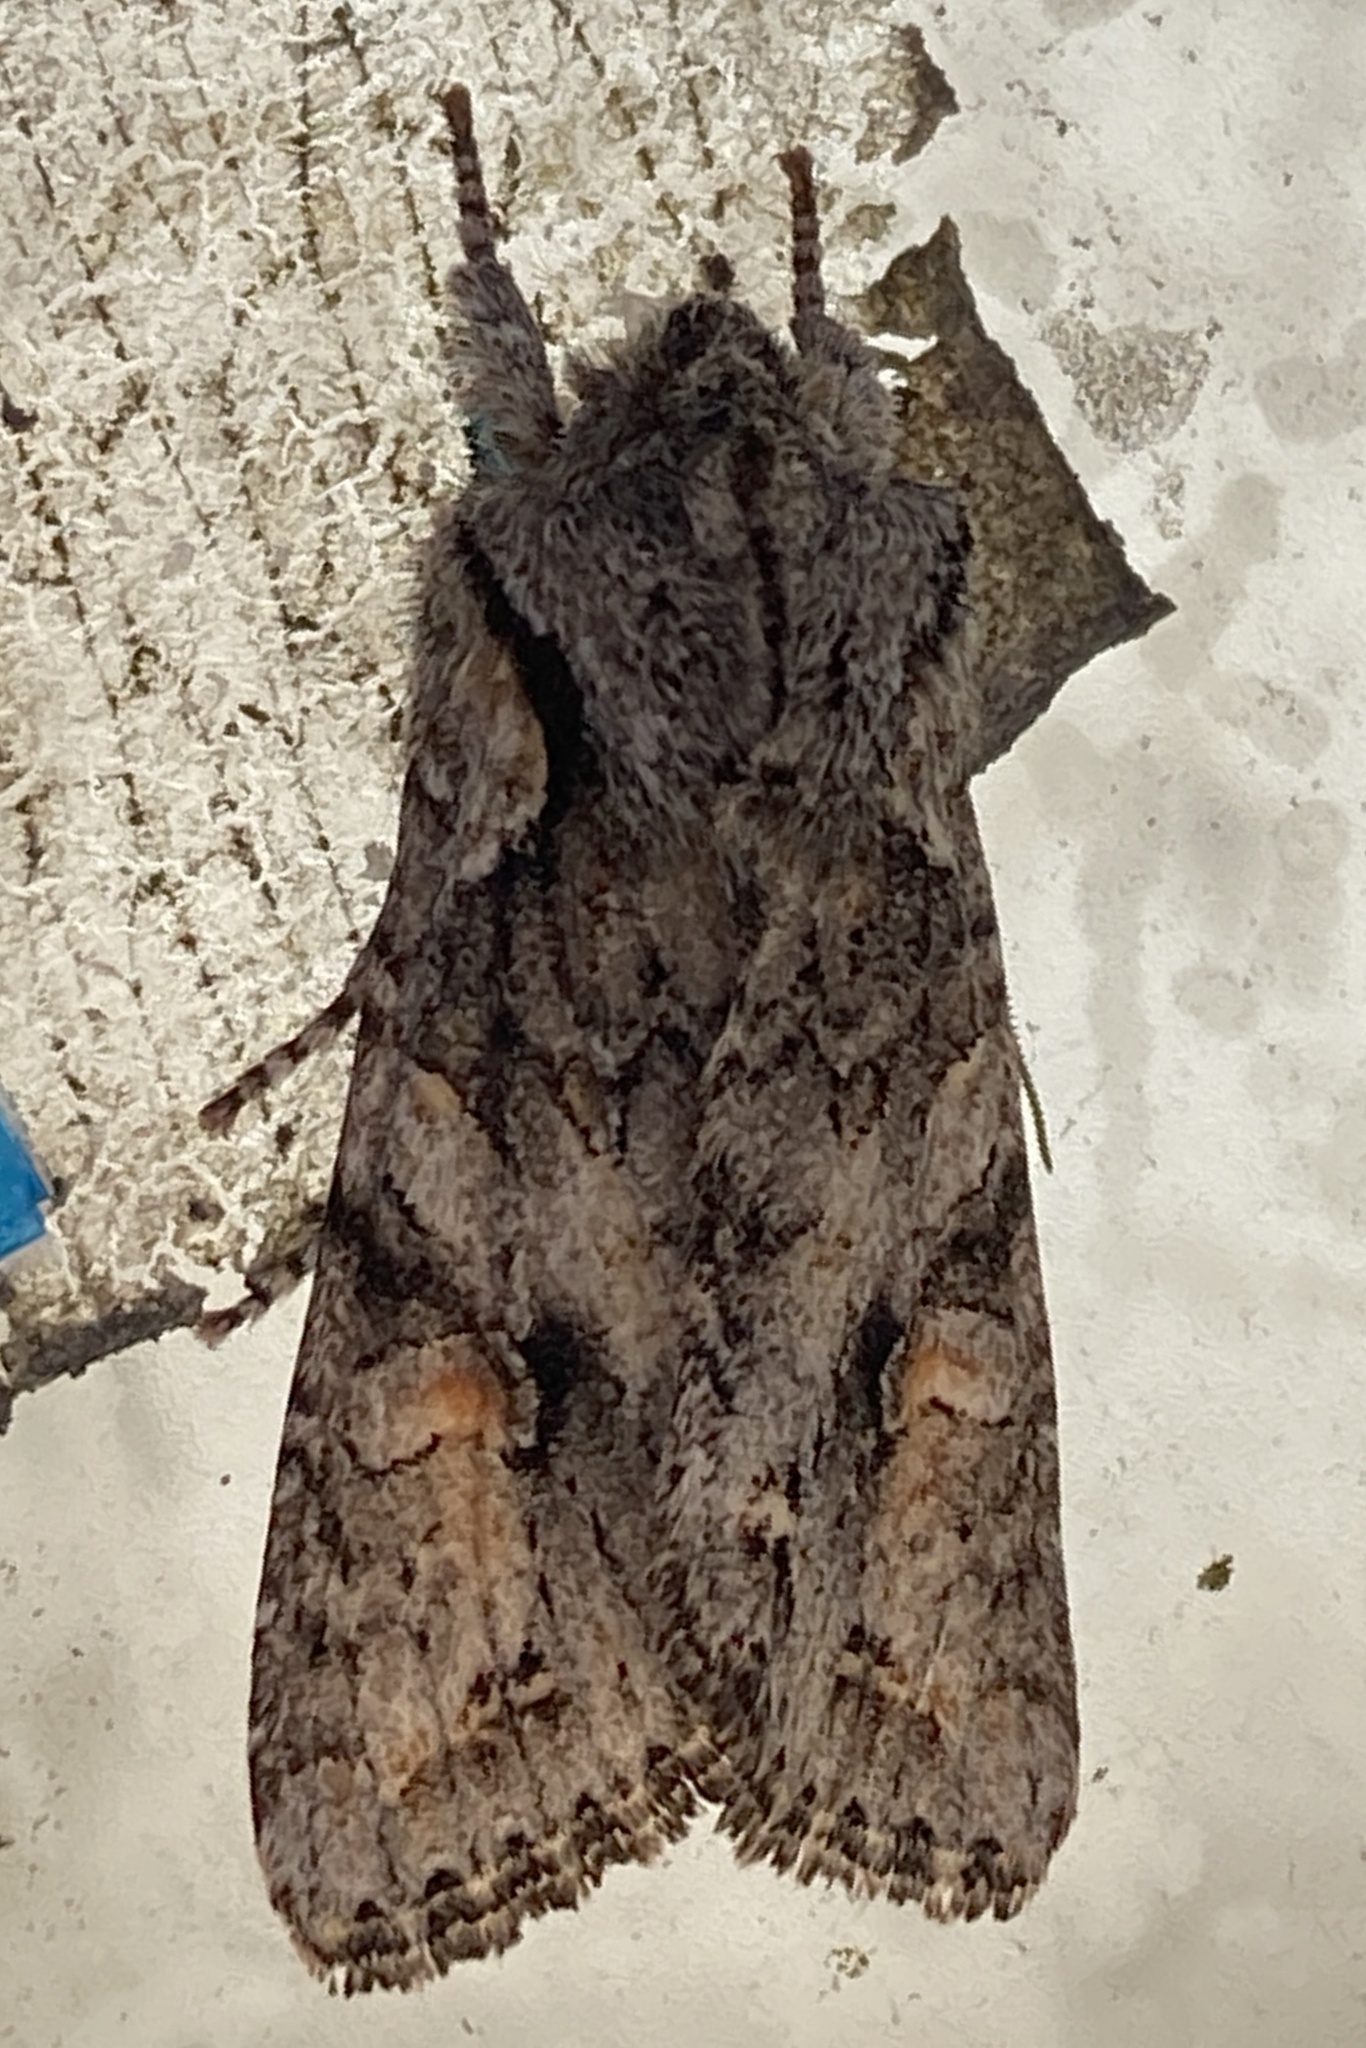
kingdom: Animalia
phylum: Arthropoda
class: Insecta
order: Lepidoptera
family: Noctuidae
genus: Egira
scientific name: Egira hiemalis
